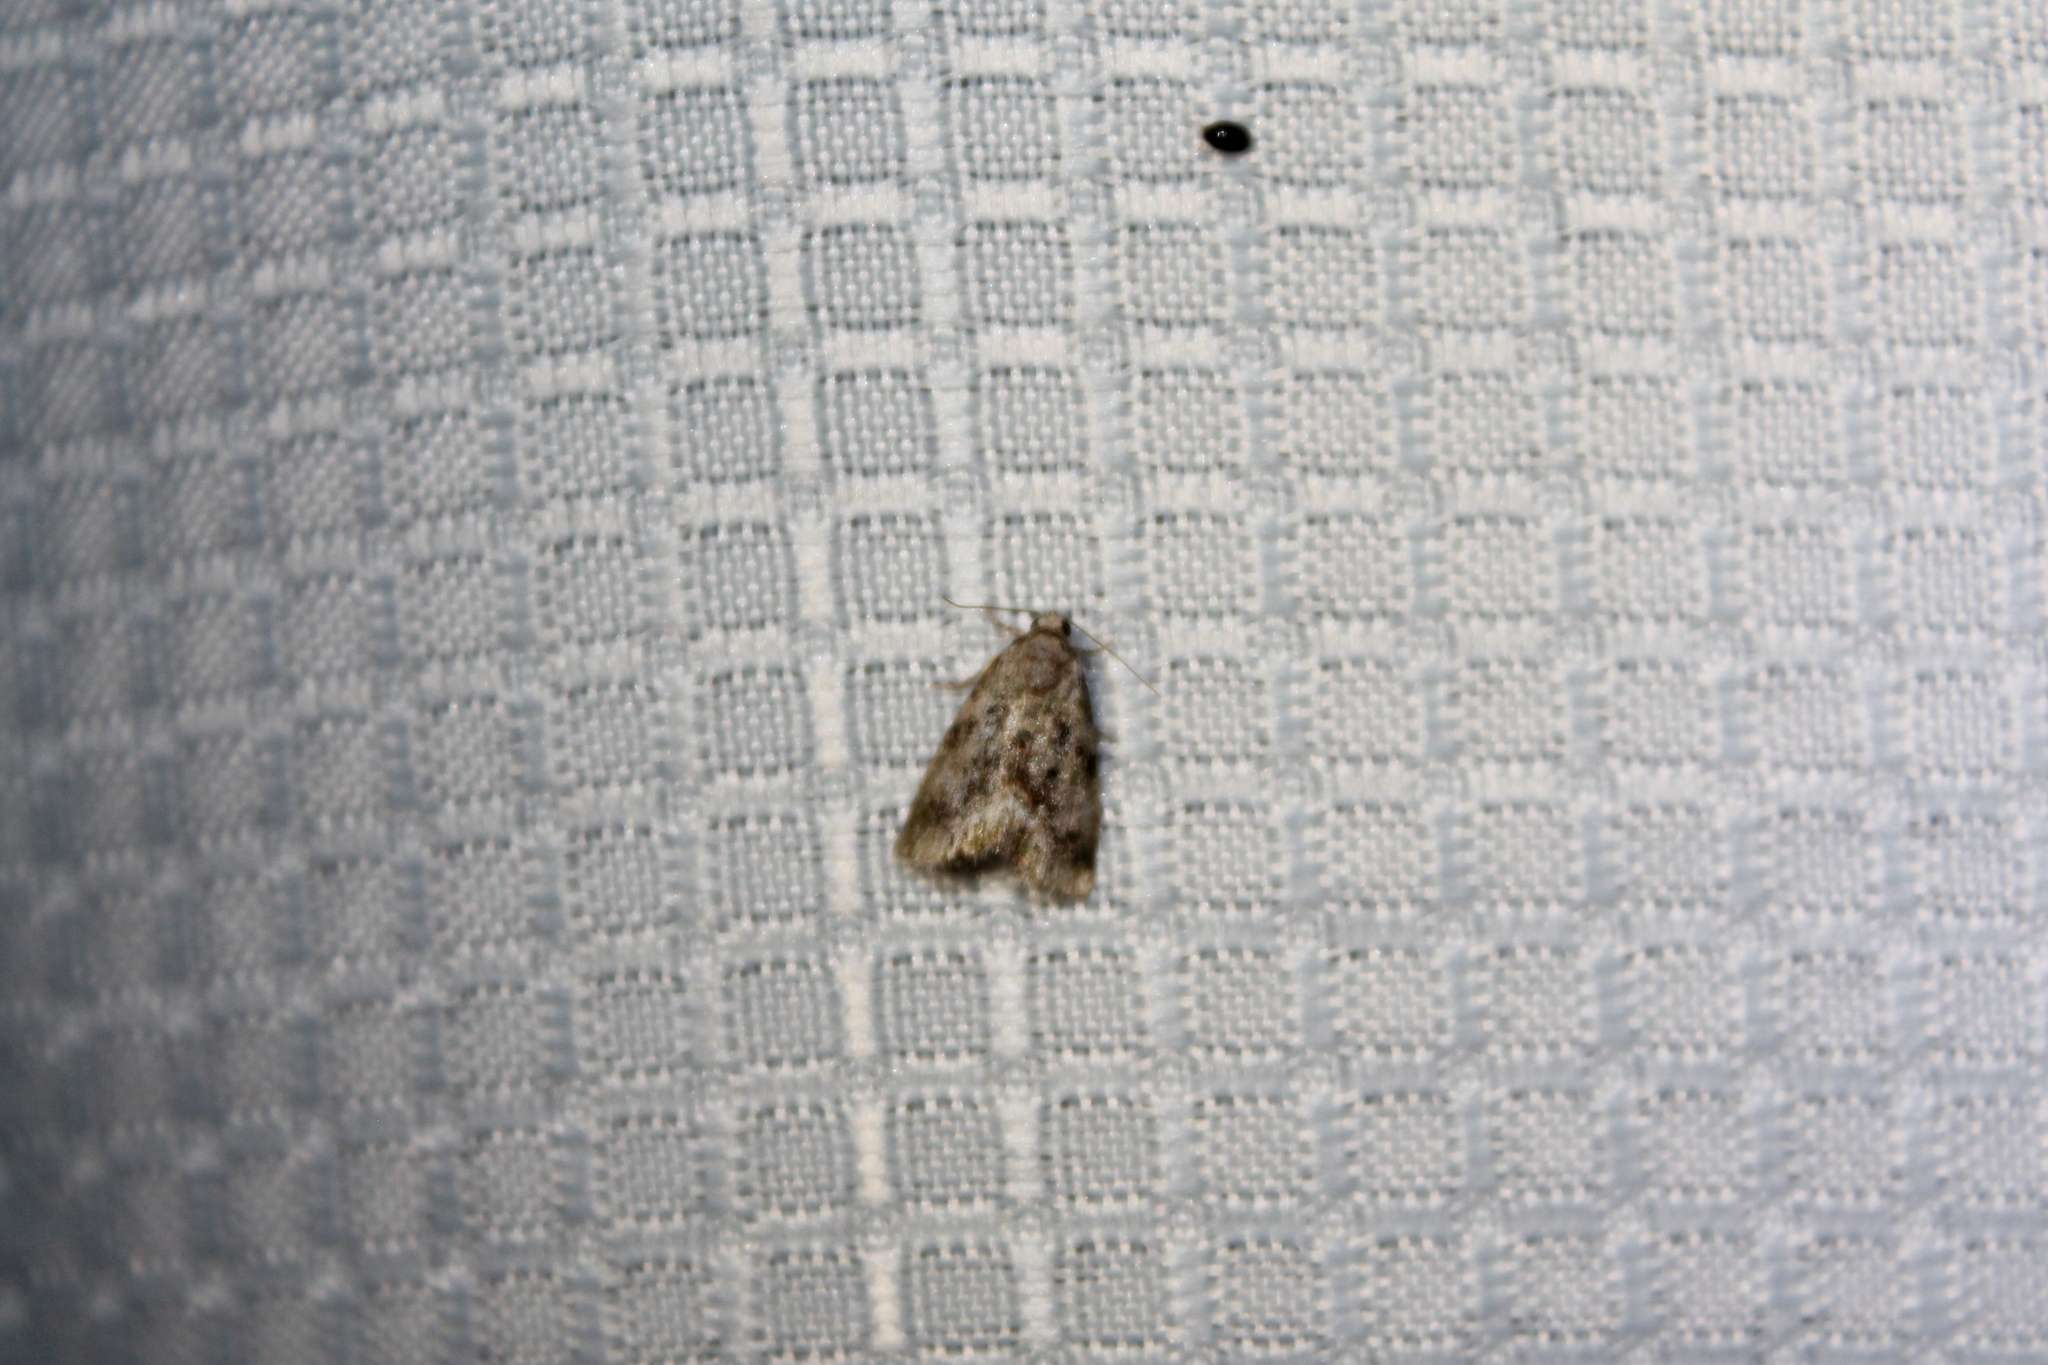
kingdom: Animalia
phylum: Arthropoda
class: Insecta
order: Lepidoptera
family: Noctuidae
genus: Lithacodia
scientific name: Lithacodia musta
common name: Small mossy glyph
